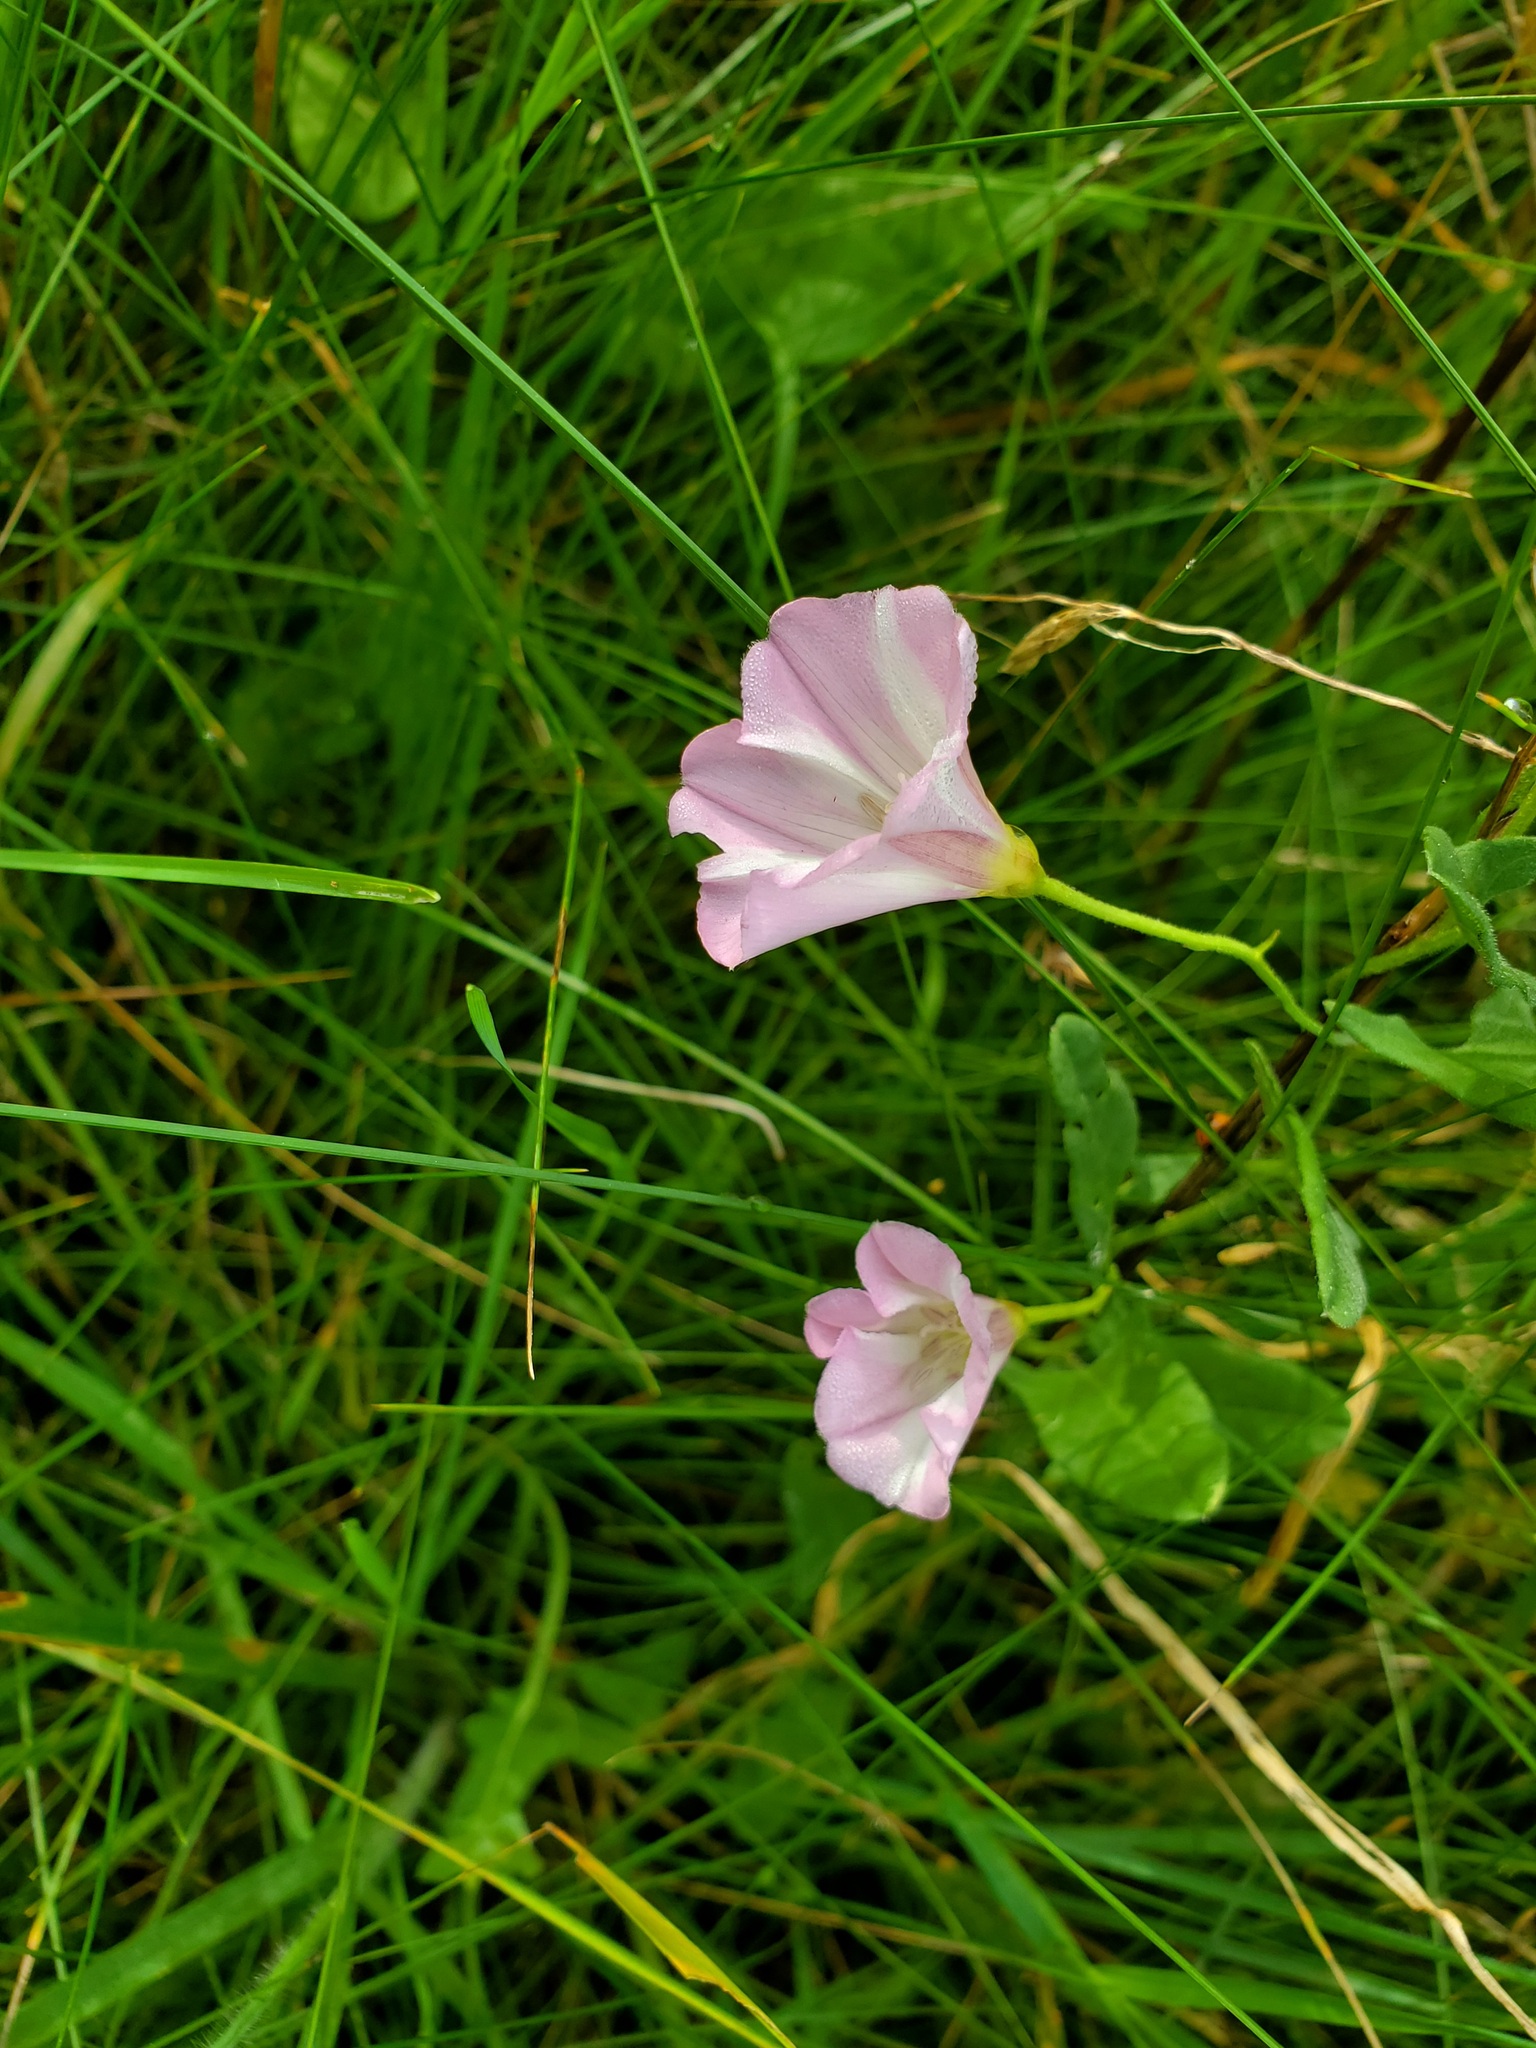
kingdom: Plantae
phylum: Tracheophyta
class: Magnoliopsida
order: Solanales
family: Convolvulaceae
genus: Convolvulus
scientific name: Convolvulus arvensis
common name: Field bindweed
